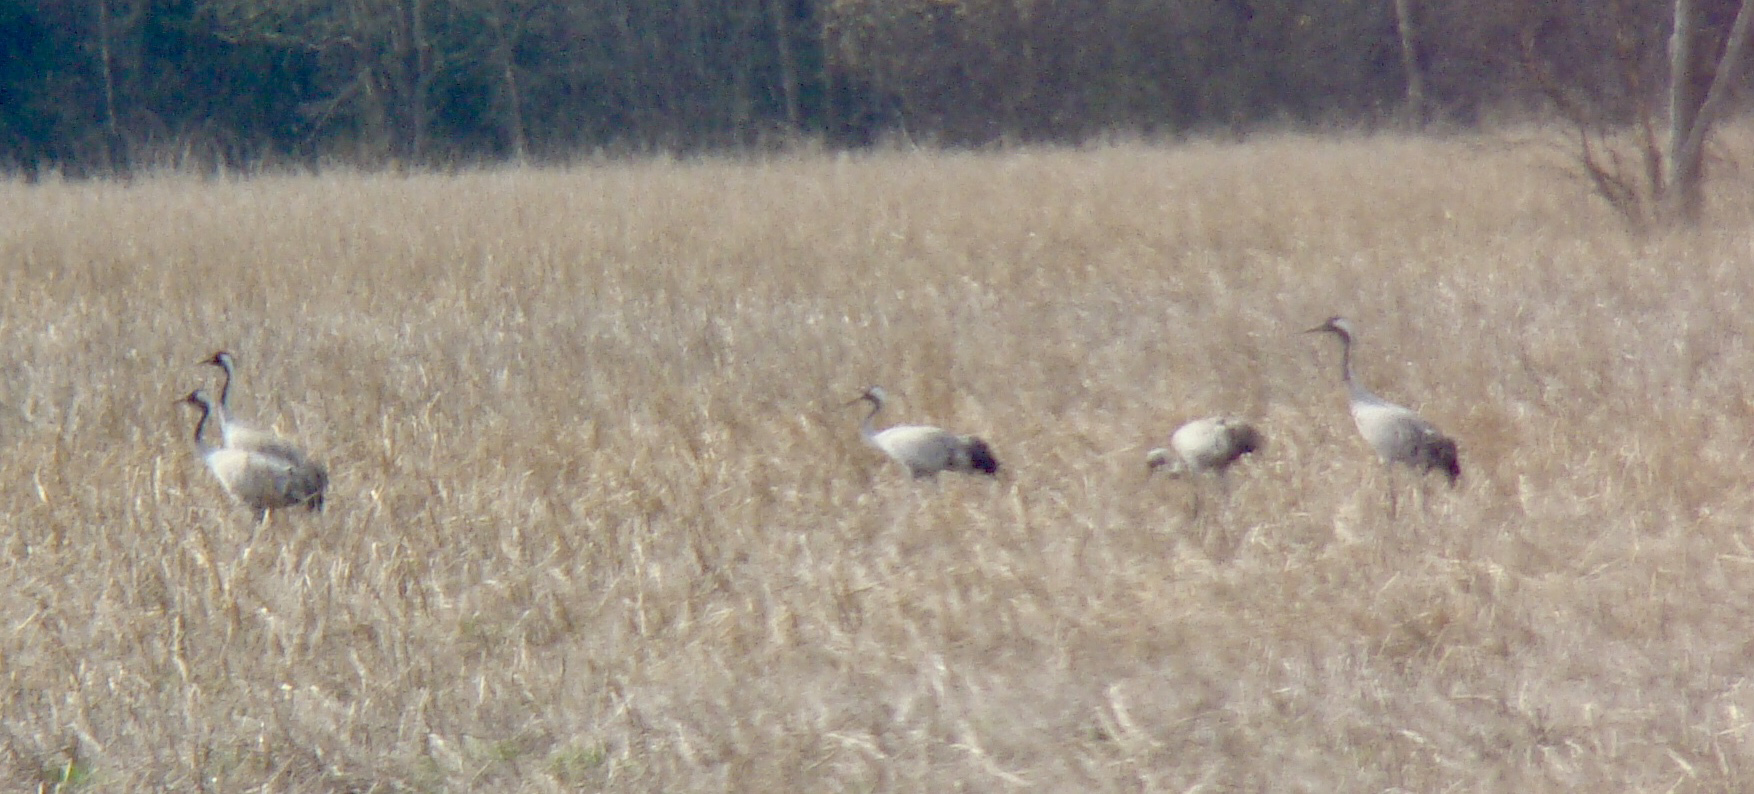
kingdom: Animalia
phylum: Chordata
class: Aves
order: Gruiformes
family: Gruidae
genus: Grus
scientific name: Grus grus
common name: Common crane
